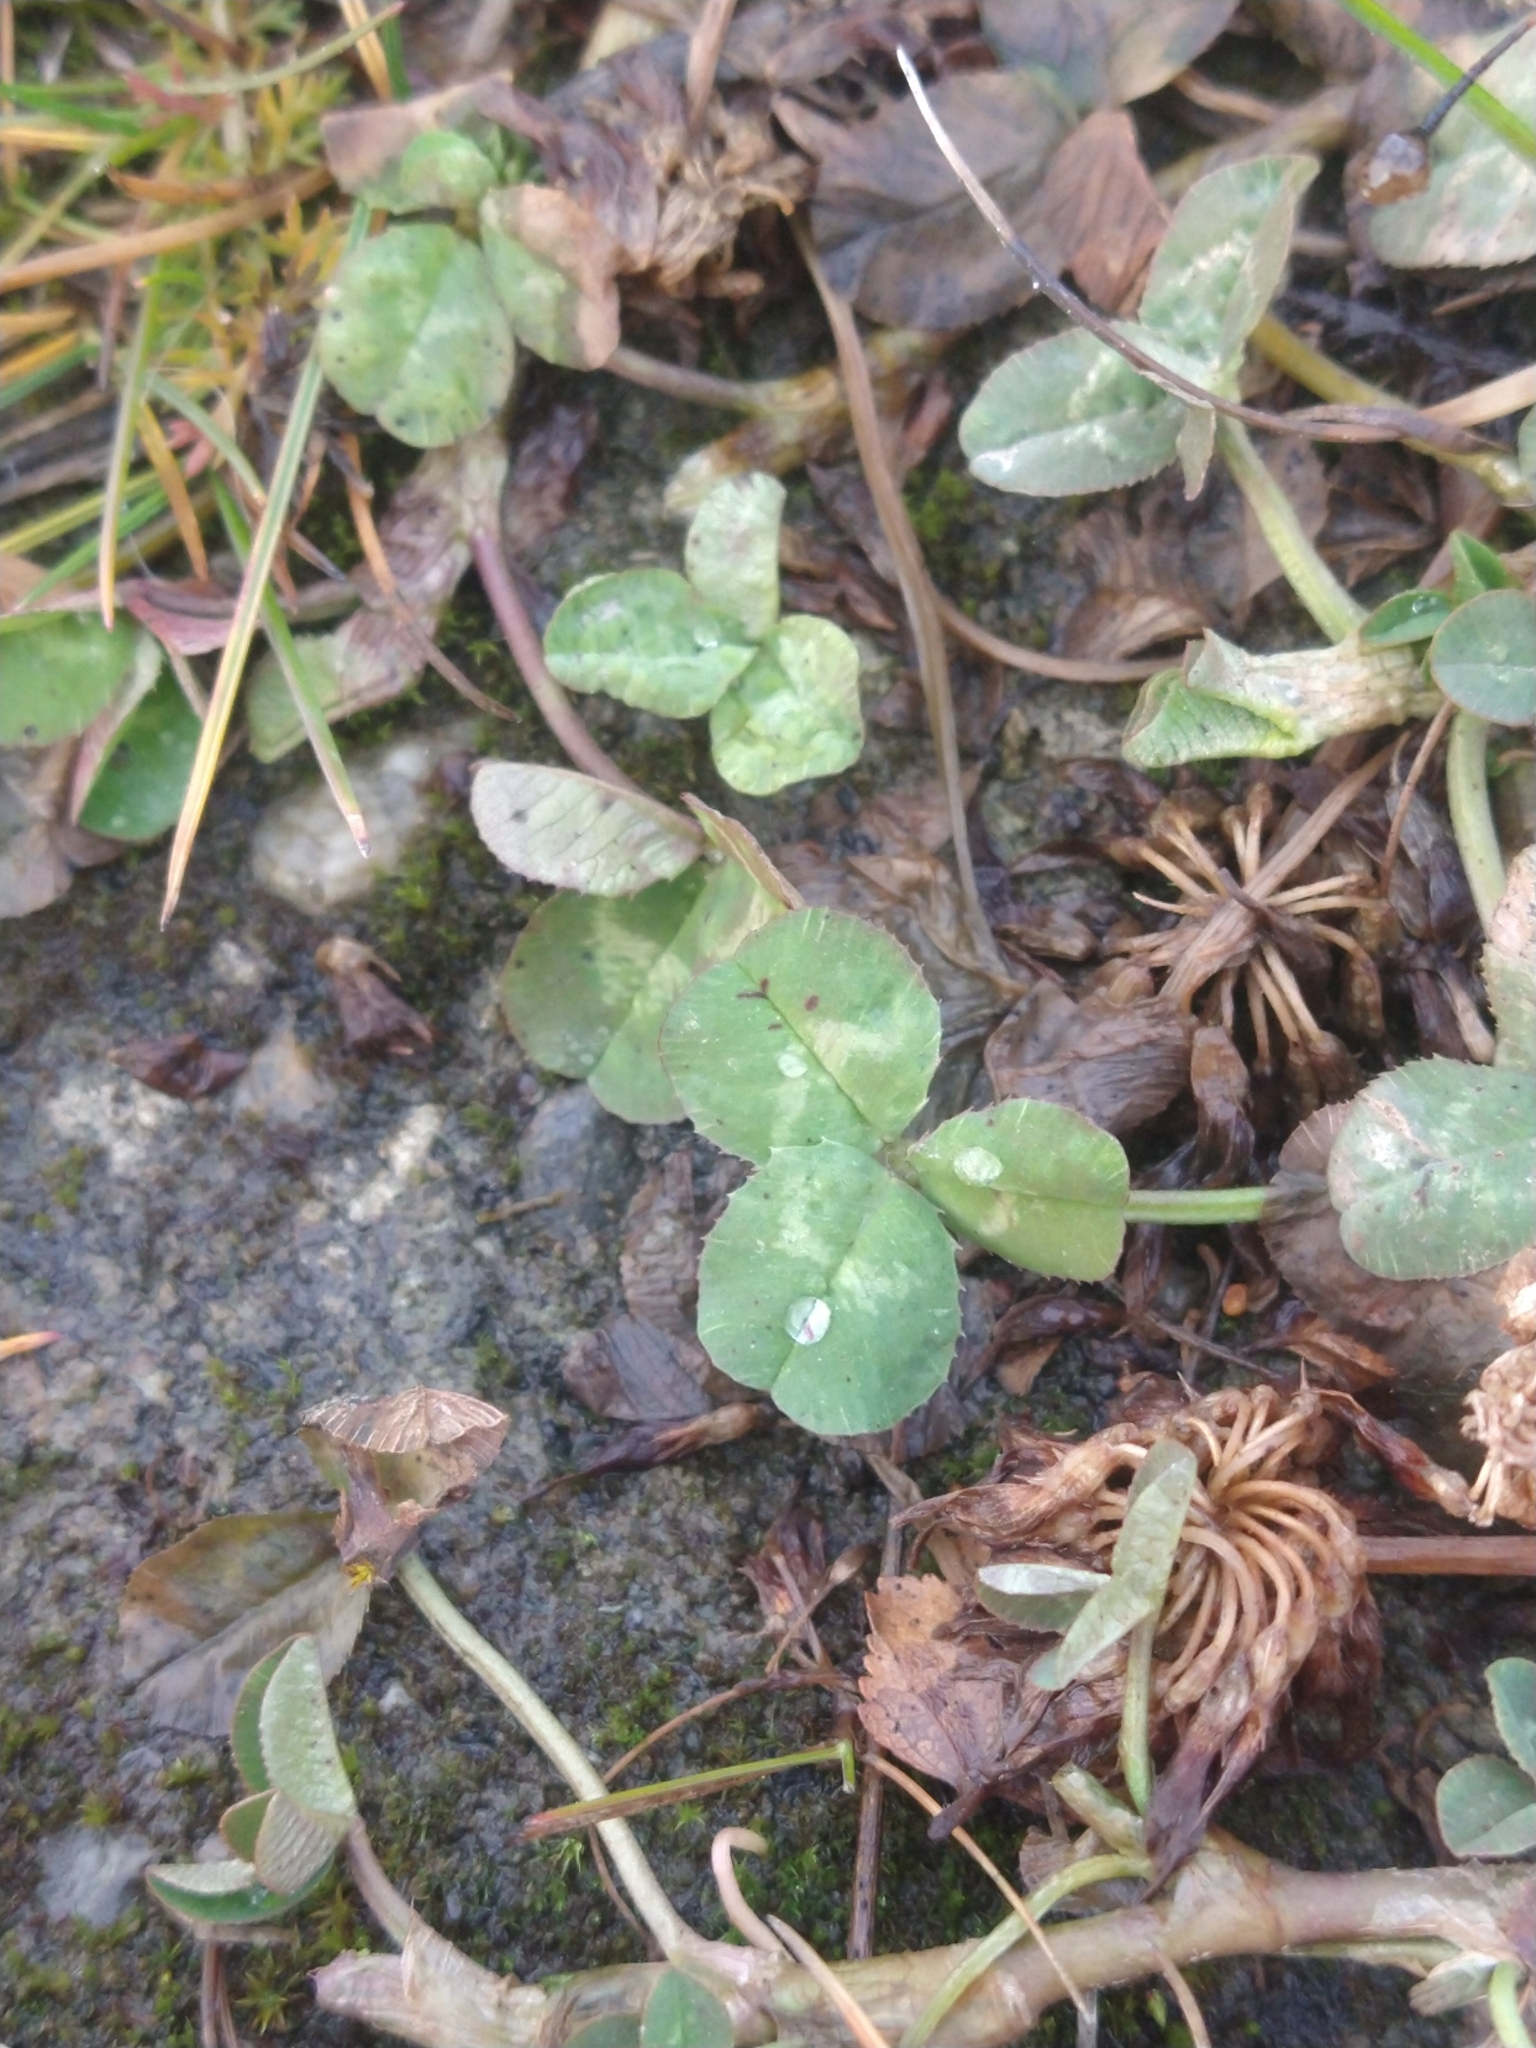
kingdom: Plantae
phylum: Tracheophyta
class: Magnoliopsida
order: Fabales
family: Fabaceae
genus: Trifolium
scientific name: Trifolium repens
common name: White clover
